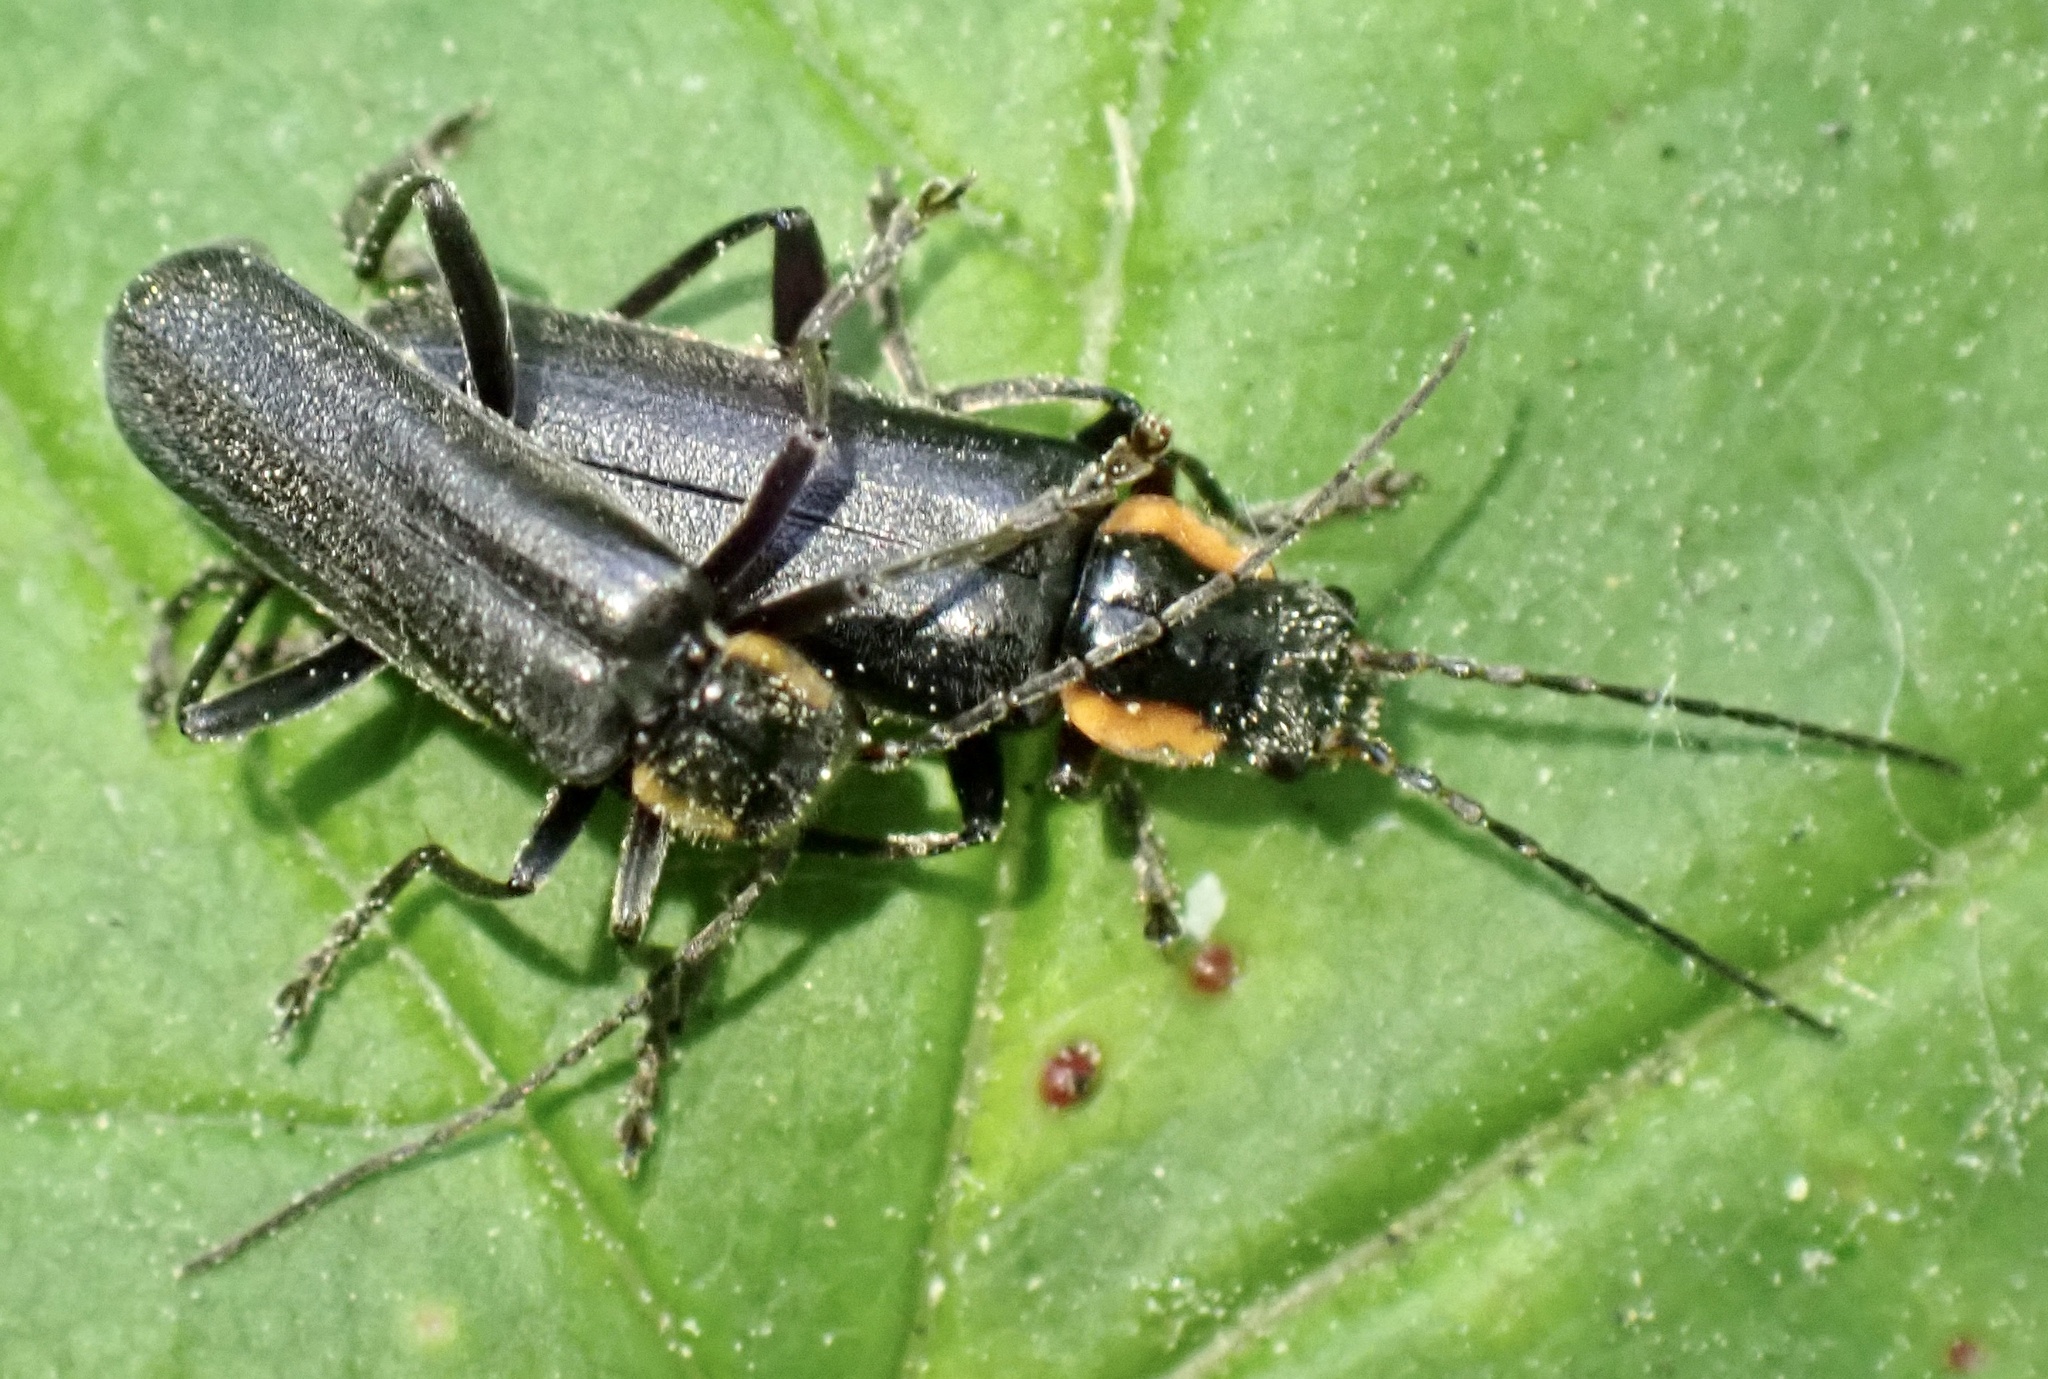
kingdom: Animalia
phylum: Arthropoda
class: Insecta
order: Coleoptera
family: Cantharidae
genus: Cantharis
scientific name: Cantharis obscura
